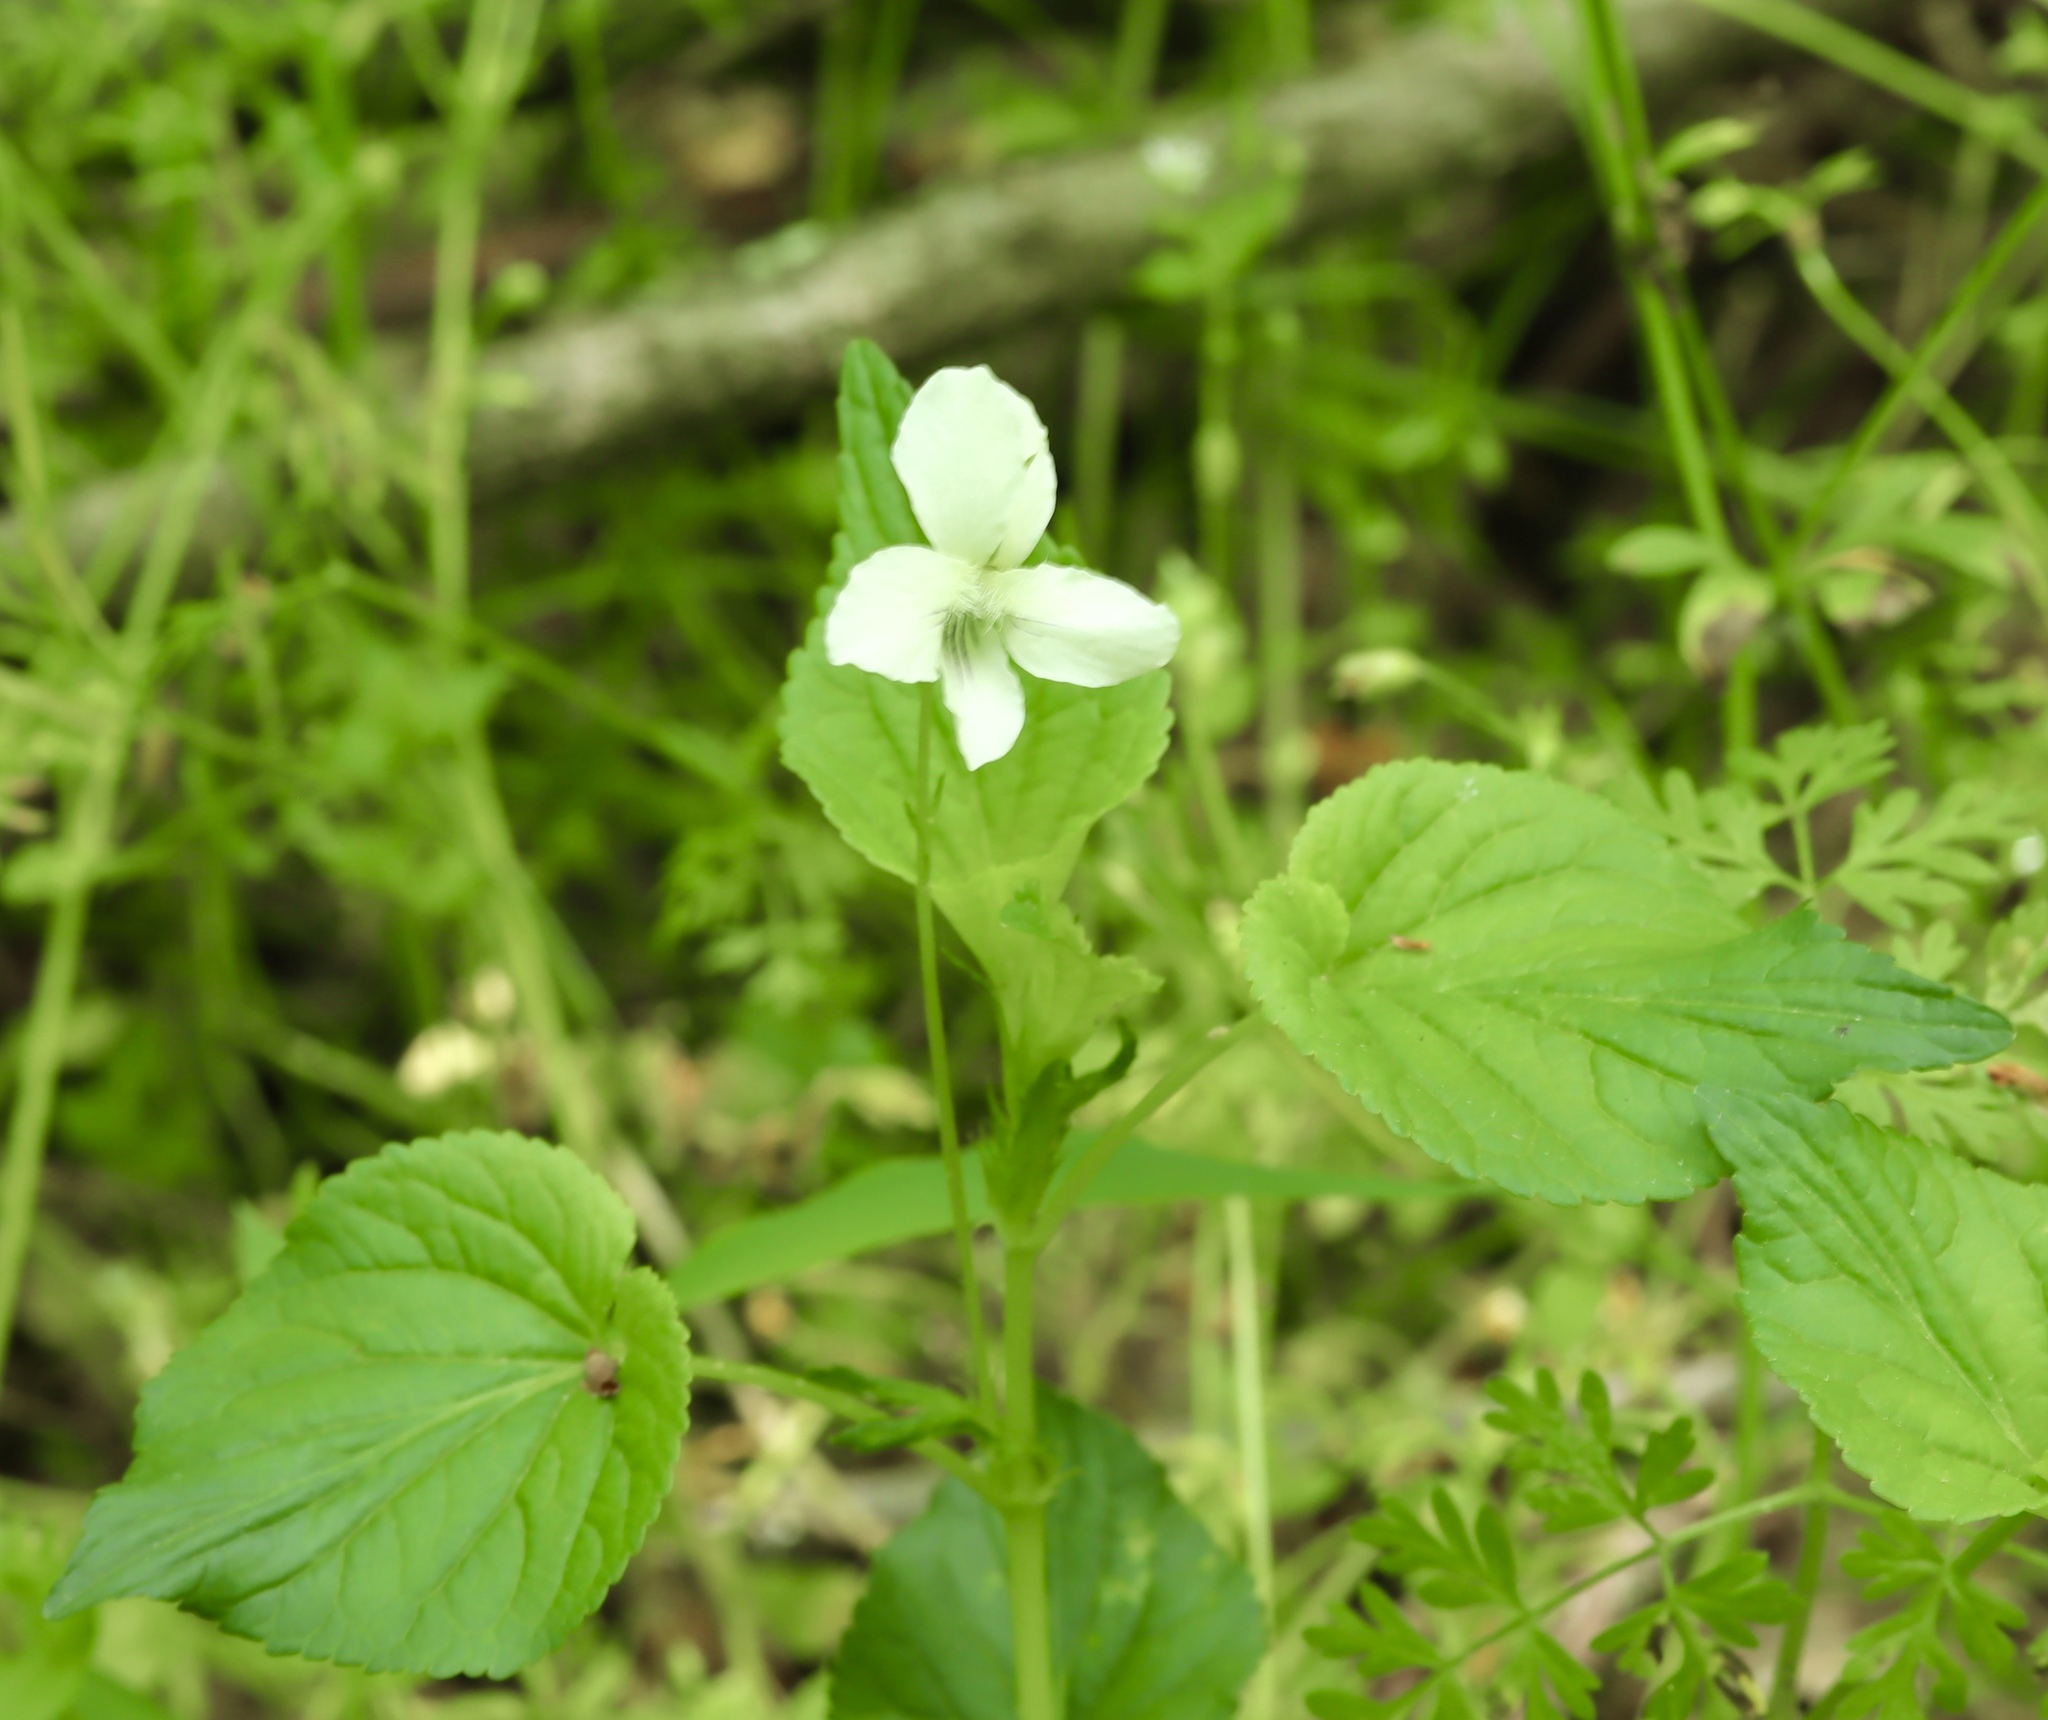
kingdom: Plantae
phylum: Tracheophyta
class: Magnoliopsida
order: Malpighiales
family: Violaceae
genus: Viola
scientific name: Viola striata
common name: Cream violet
